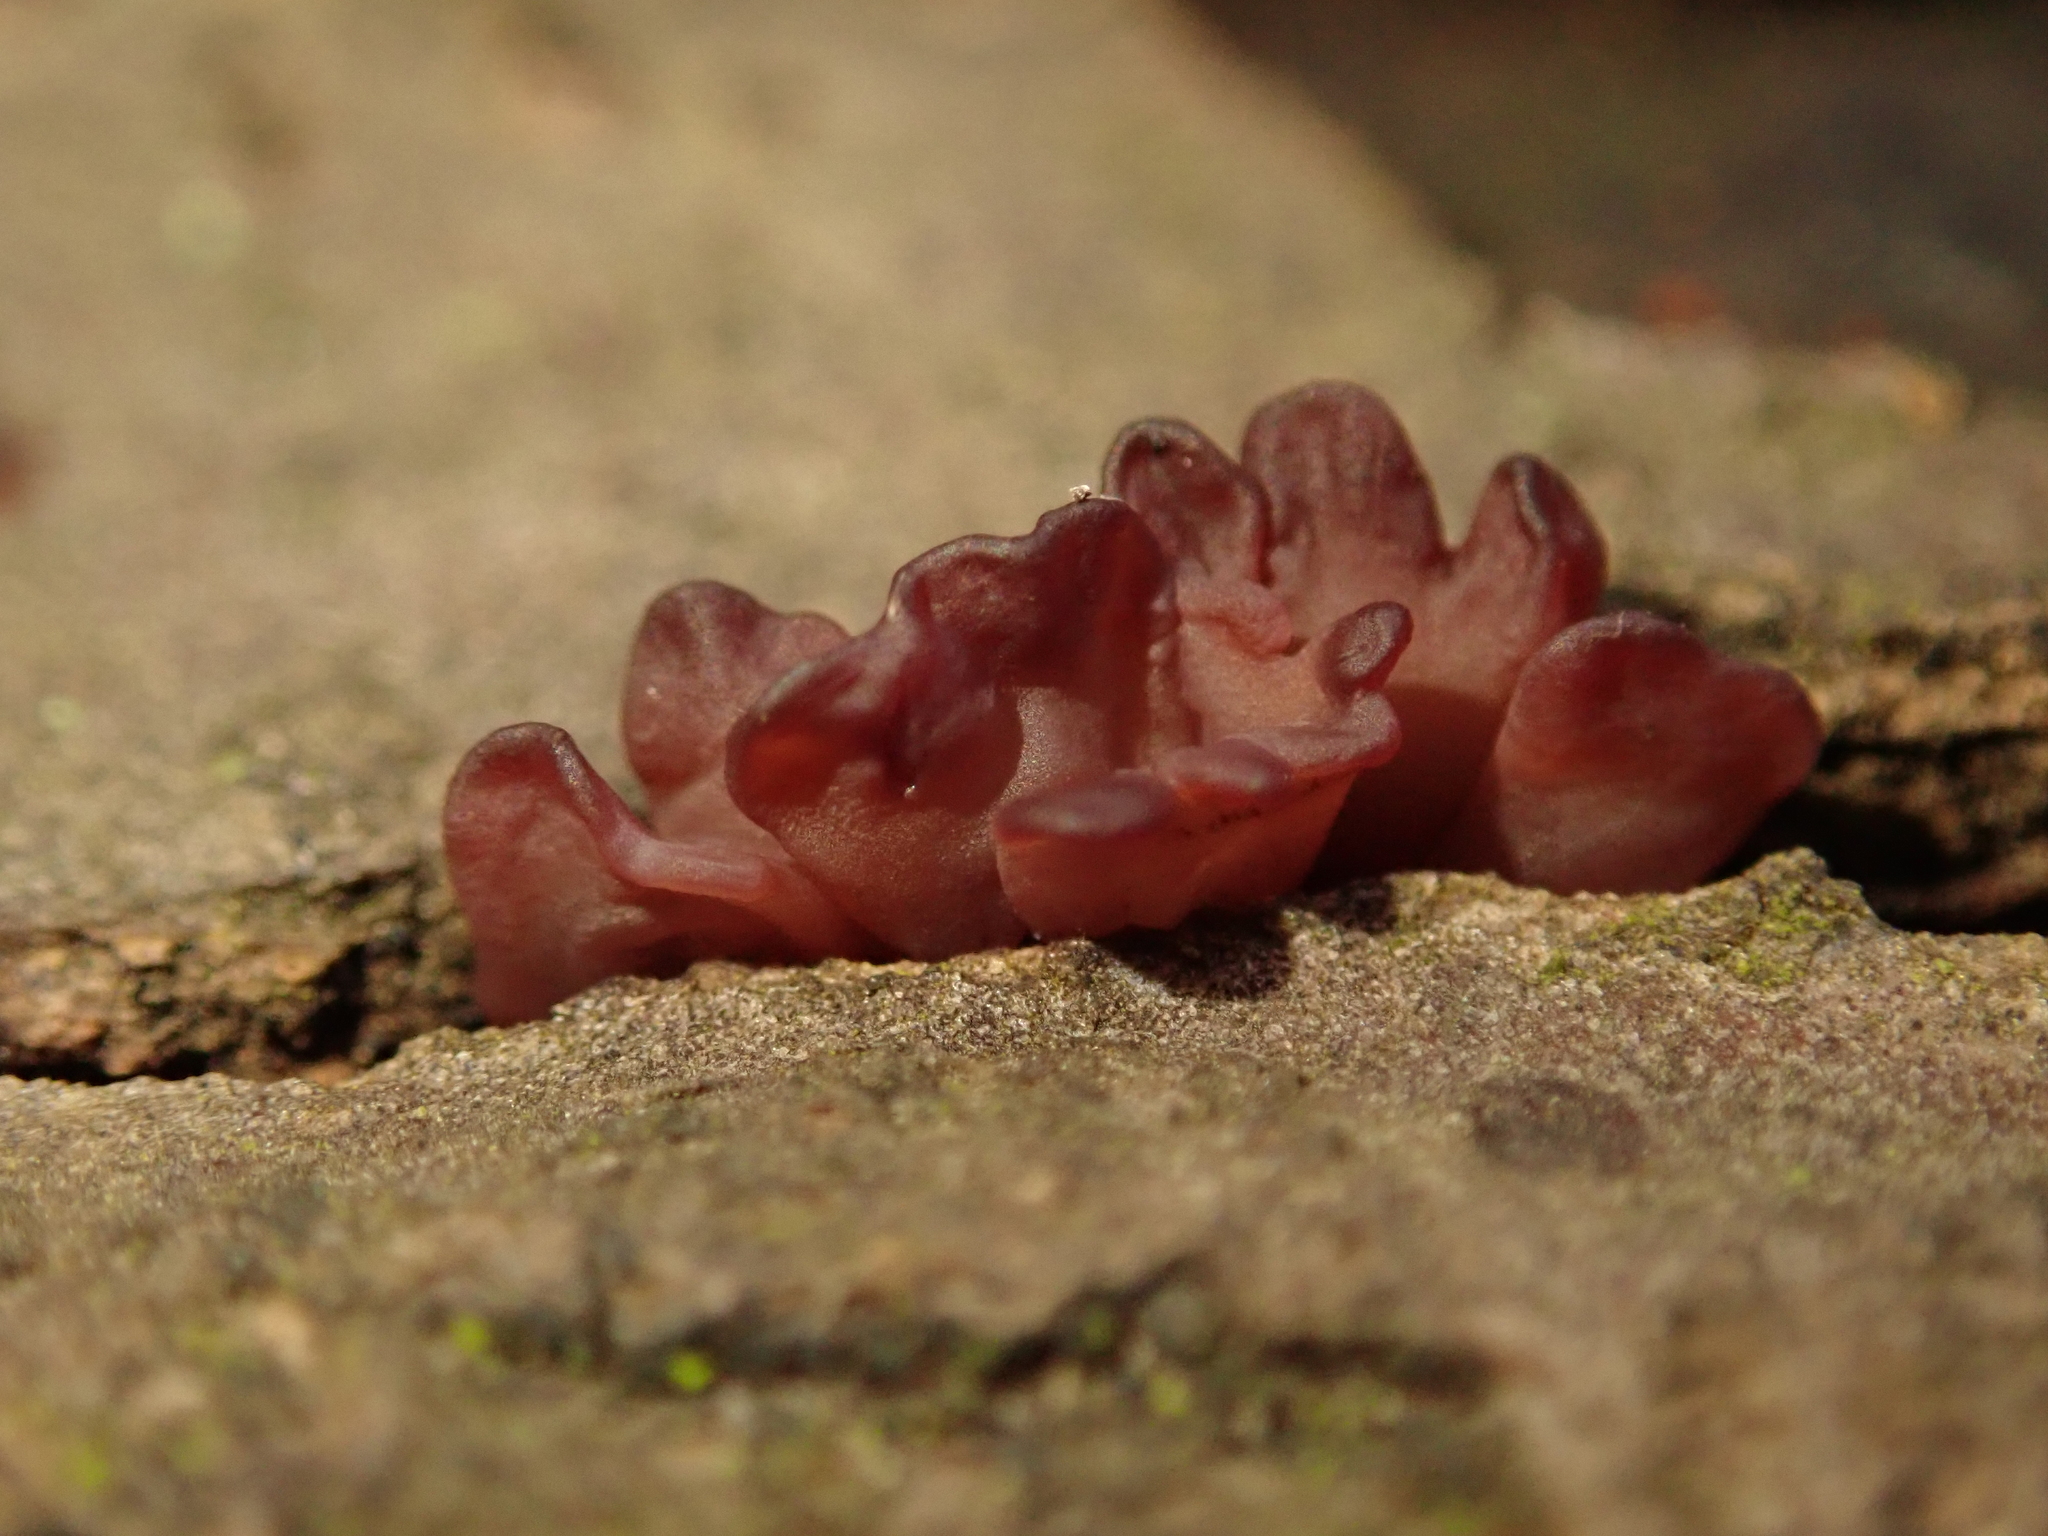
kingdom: Fungi
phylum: Ascomycota
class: Leotiomycetes
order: Helotiales
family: Gelatinodiscaceae
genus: Ascocoryne
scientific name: Ascocoryne sarcoides
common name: Purple jellydisc
